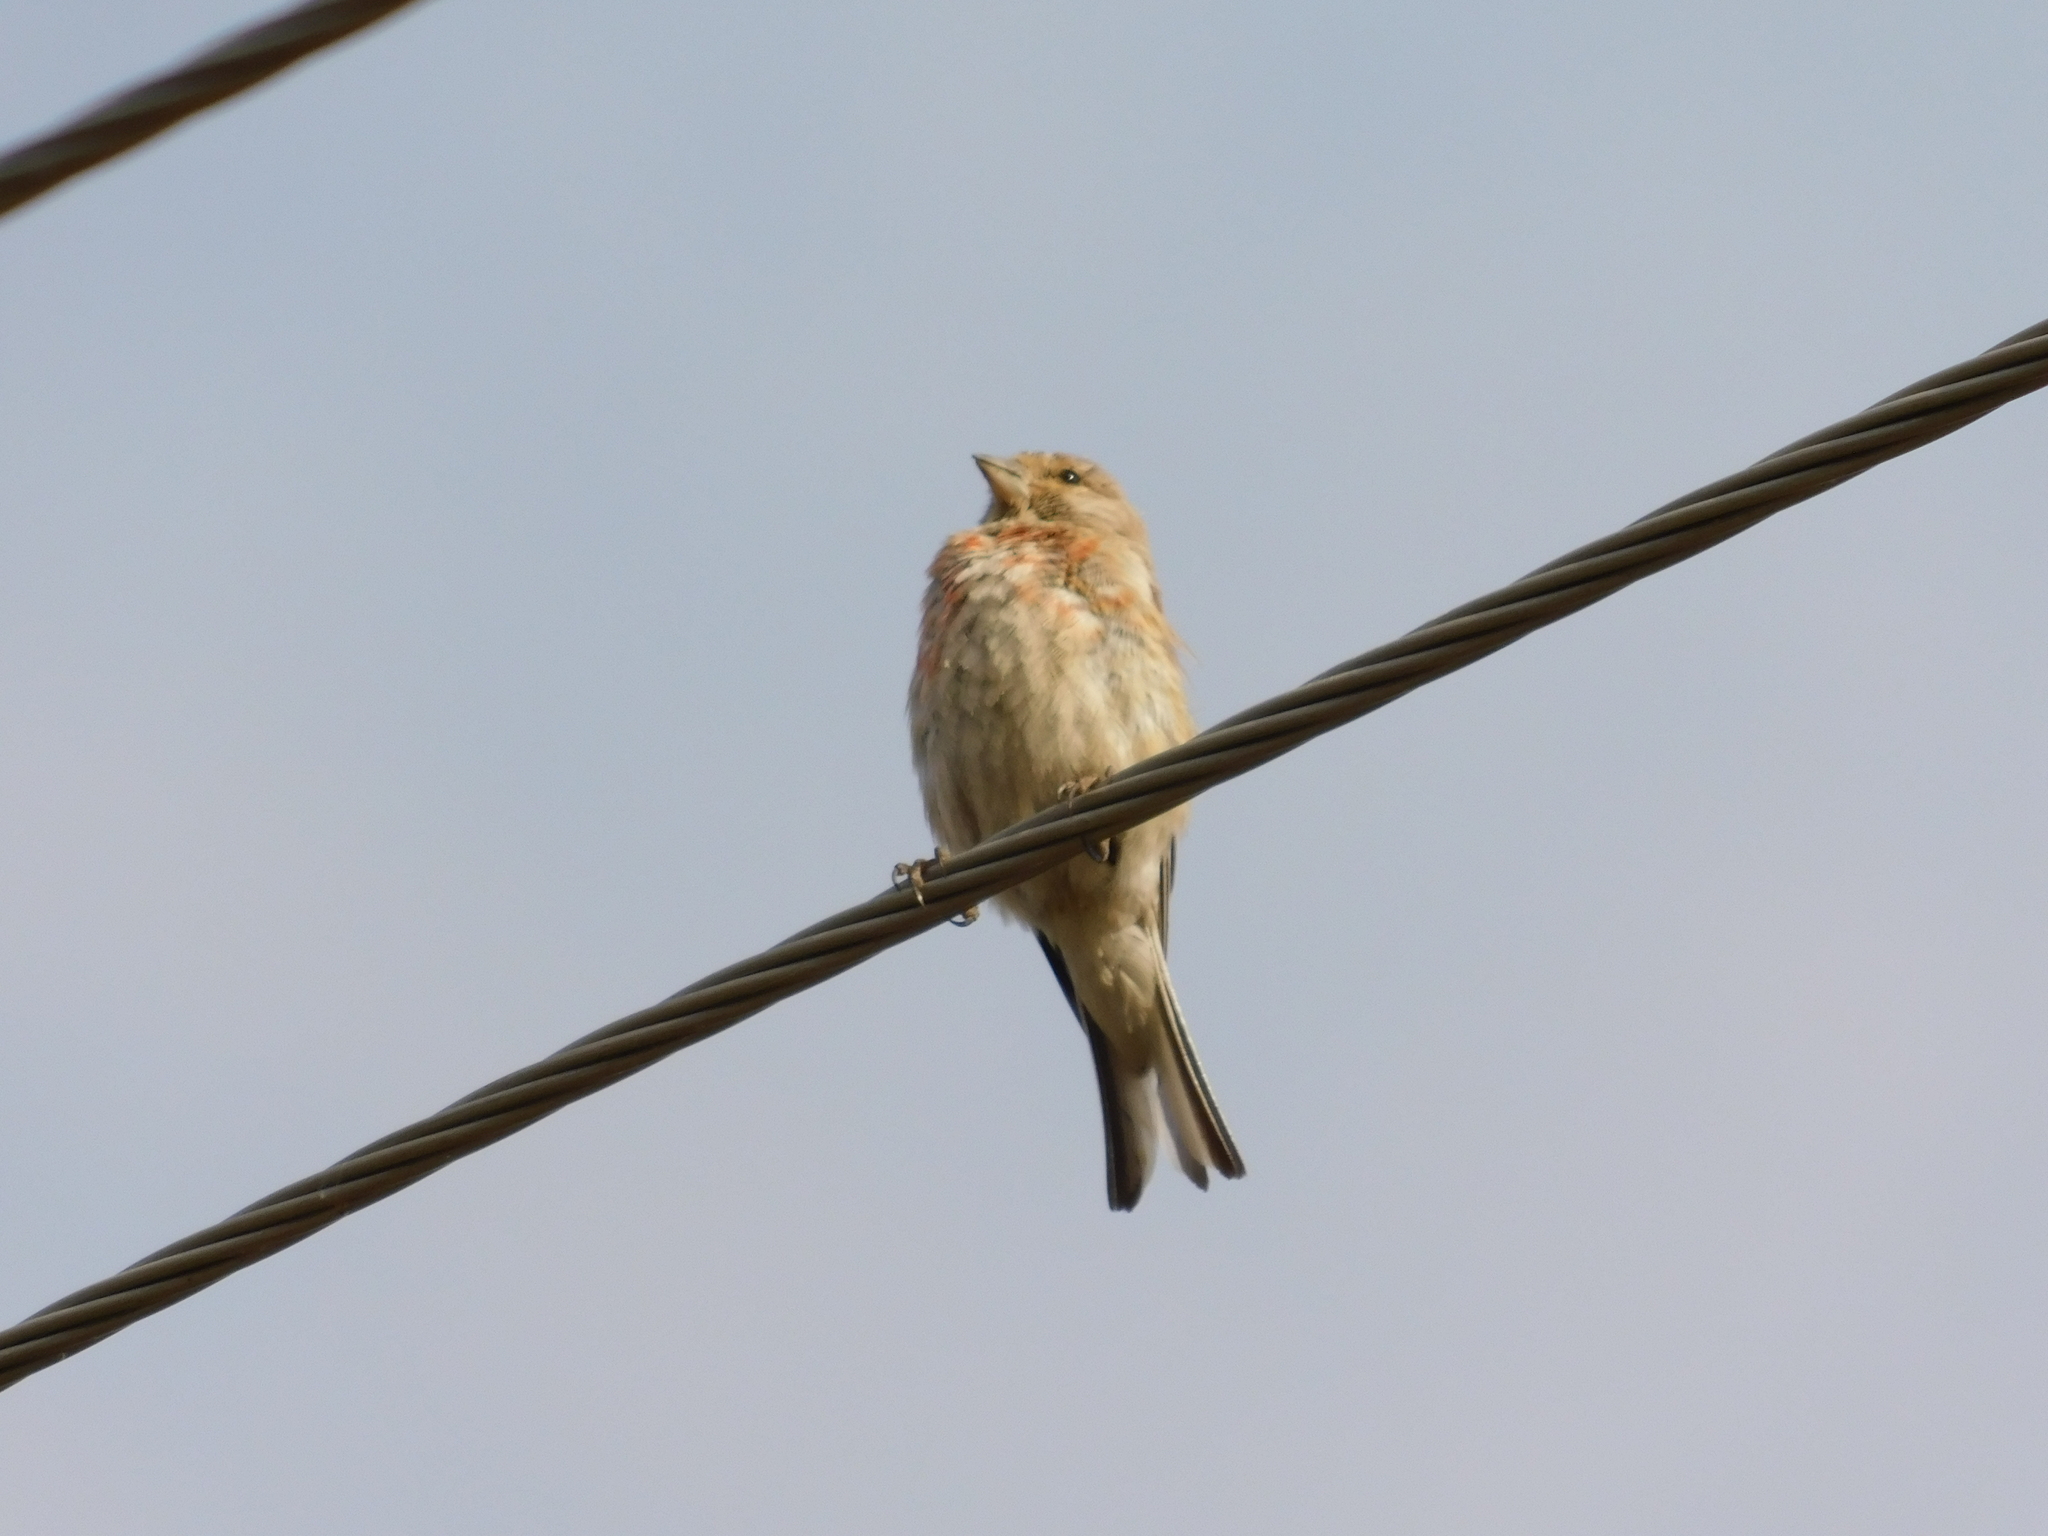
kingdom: Animalia
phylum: Chordata
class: Aves
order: Passeriformes
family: Fringillidae
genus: Linaria
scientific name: Linaria cannabina
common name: Common linnet
